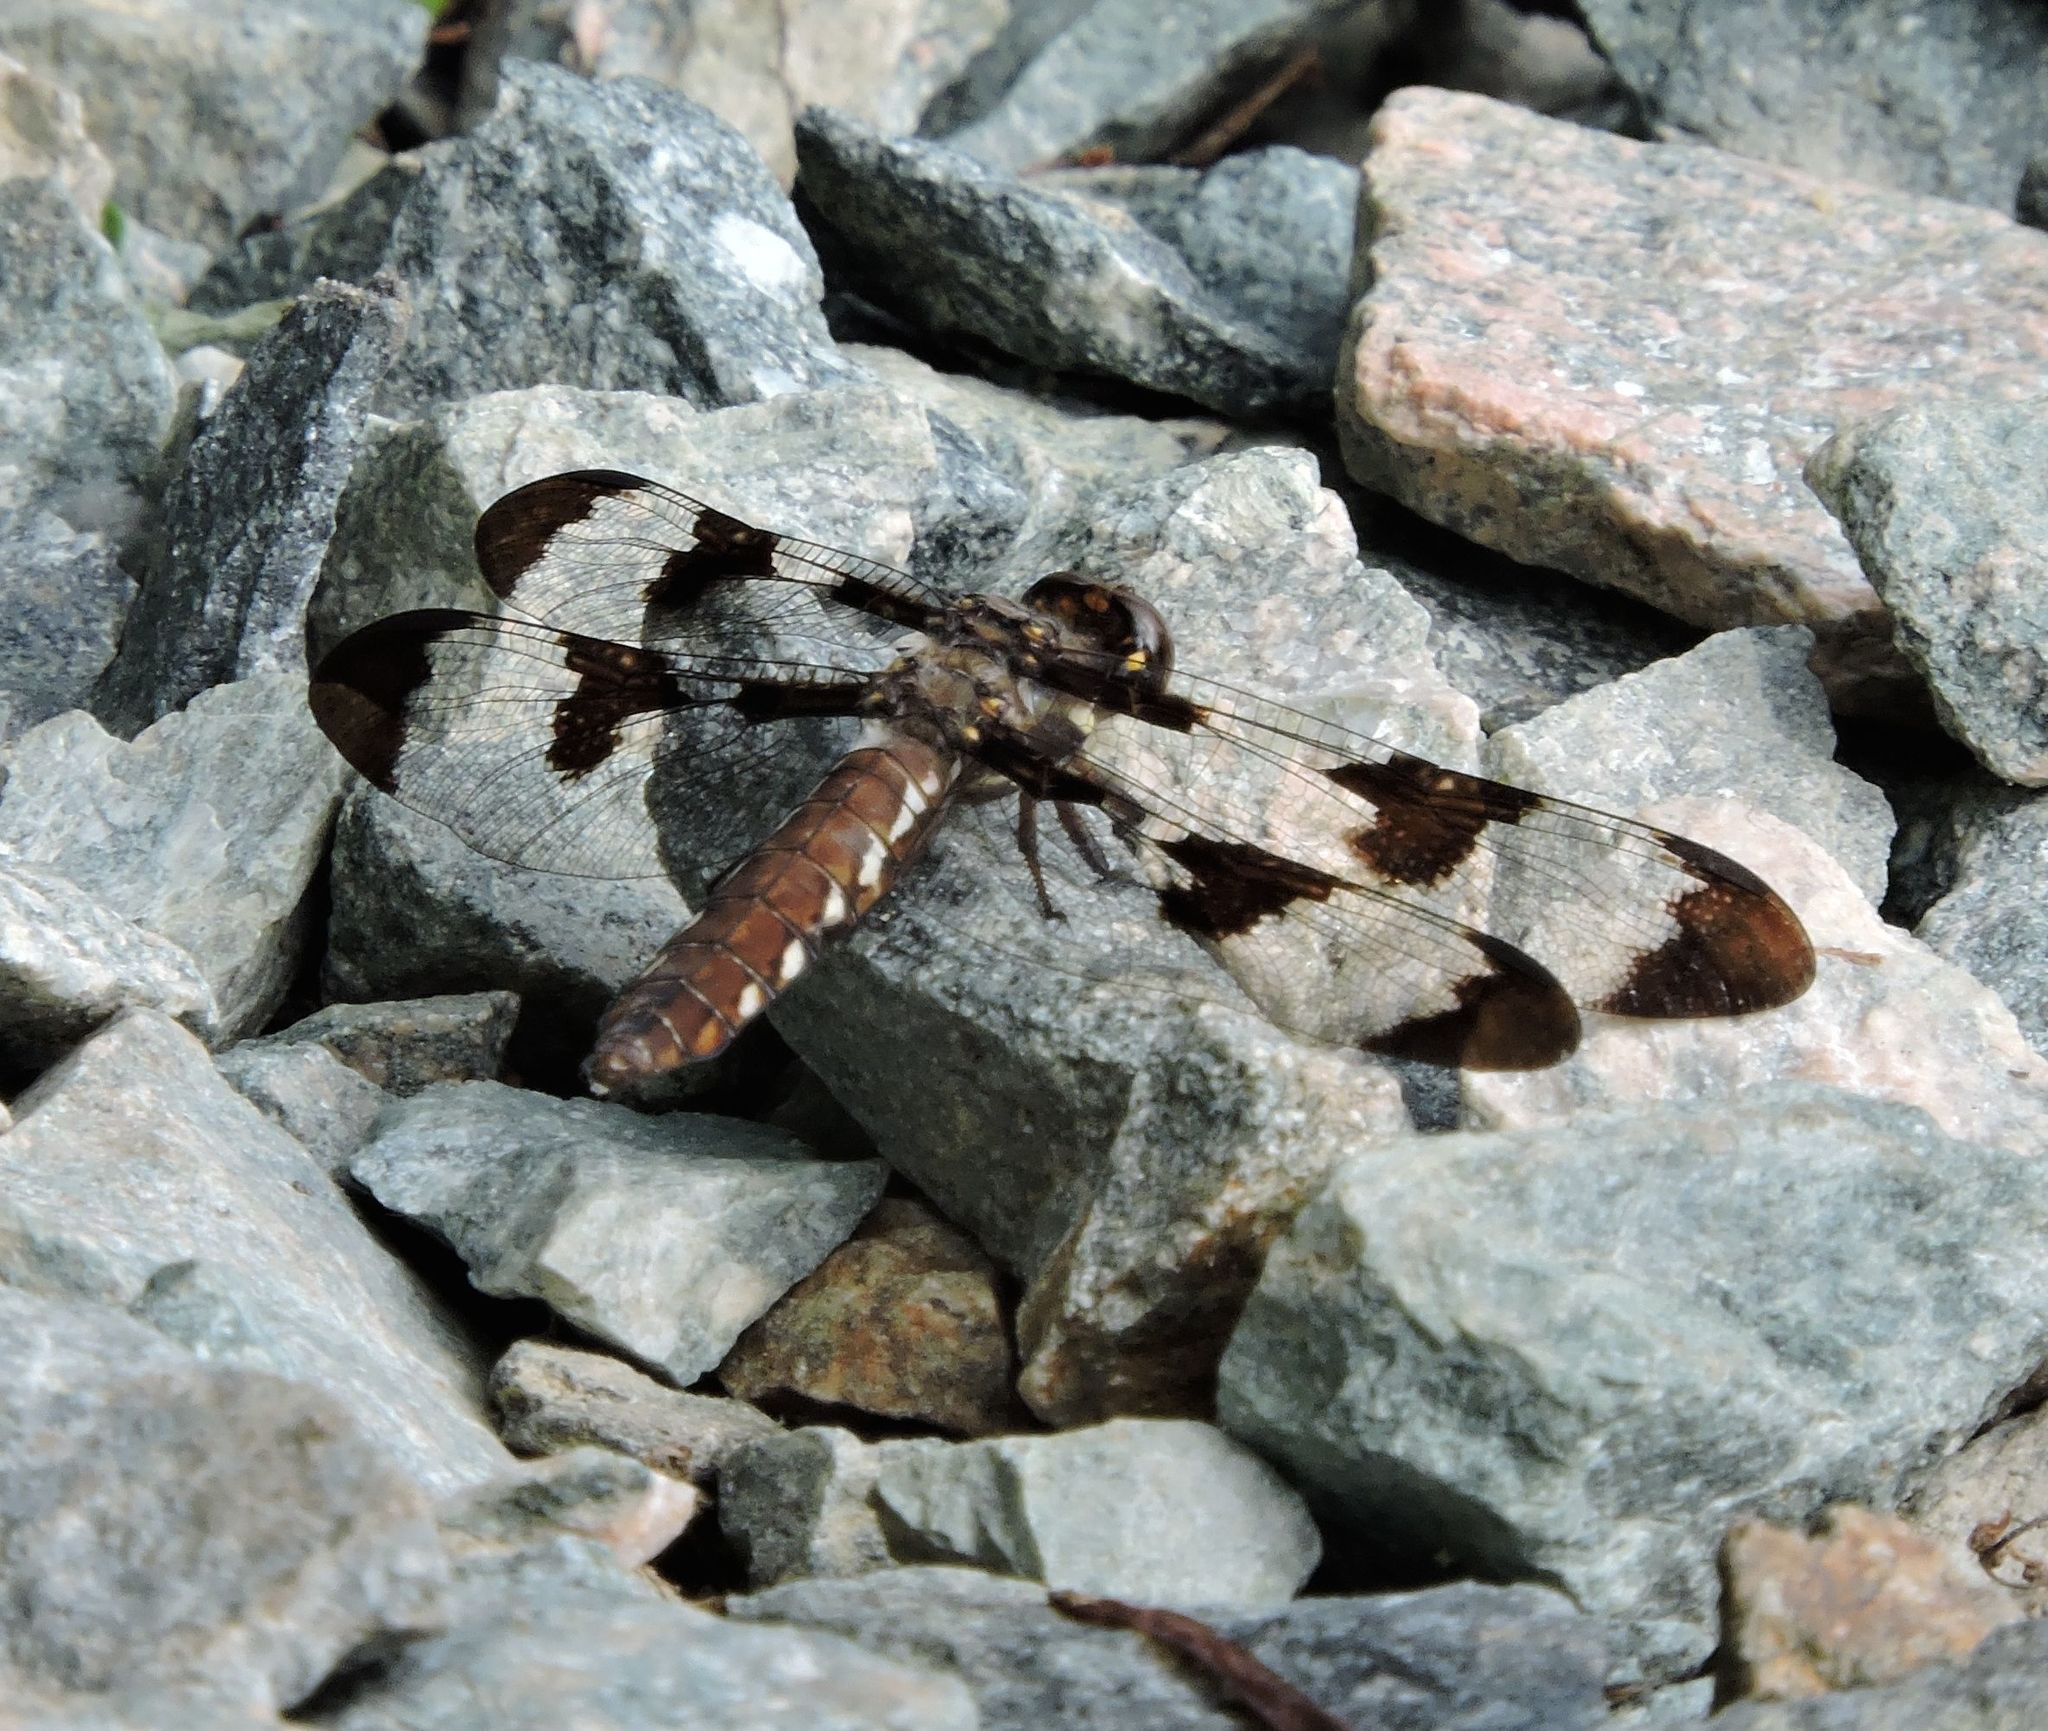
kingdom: Animalia
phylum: Arthropoda
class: Insecta
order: Odonata
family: Libellulidae
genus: Plathemis
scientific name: Plathemis lydia
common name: Common whitetail
